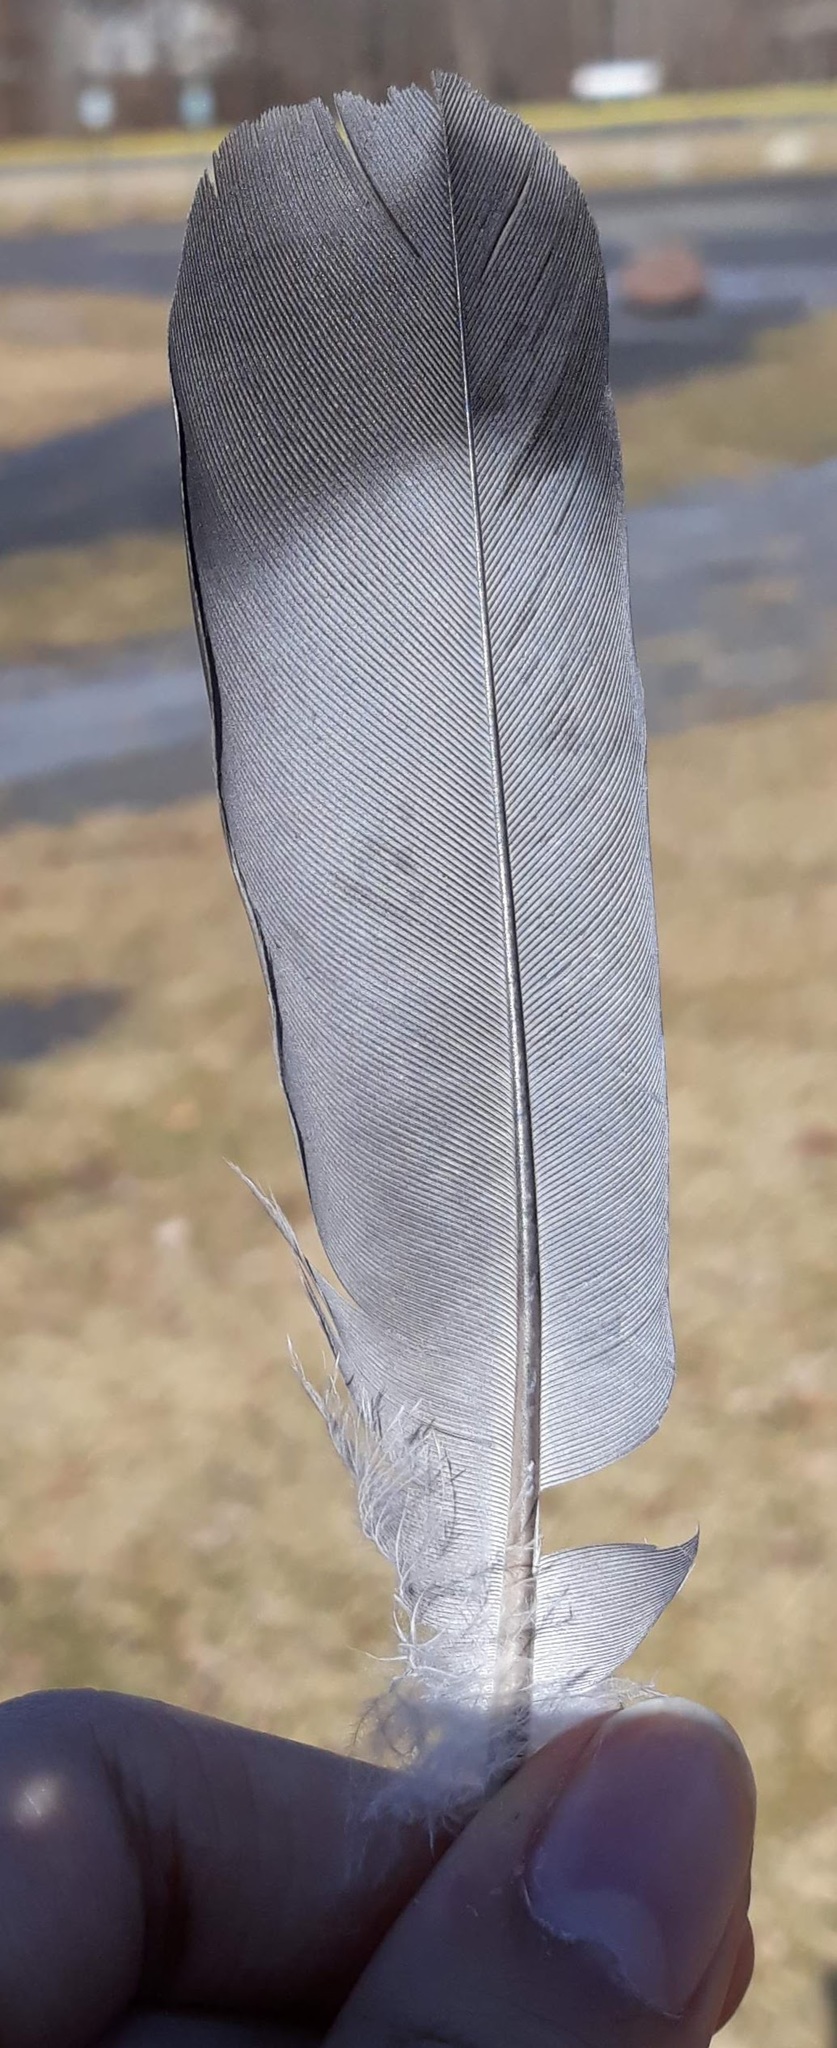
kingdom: Animalia
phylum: Chordata
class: Aves
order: Columbiformes
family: Columbidae
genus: Columba
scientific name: Columba livia
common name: Rock pigeon
